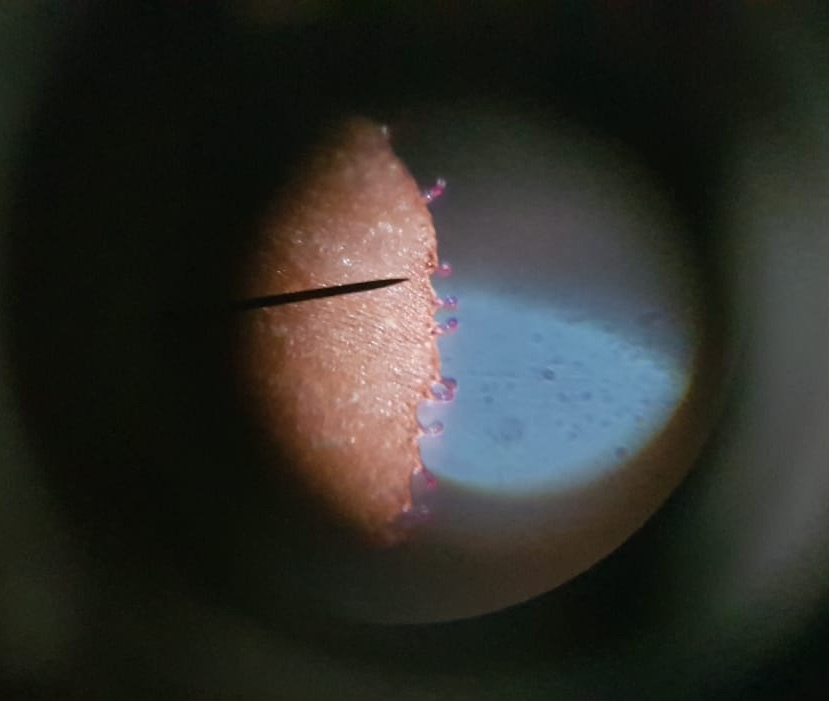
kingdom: Plantae
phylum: Tracheophyta
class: Magnoliopsida
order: Ericales
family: Primulaceae
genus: Lysimachia
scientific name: Lysimachia arvensis
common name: Scarlet pimpernel
